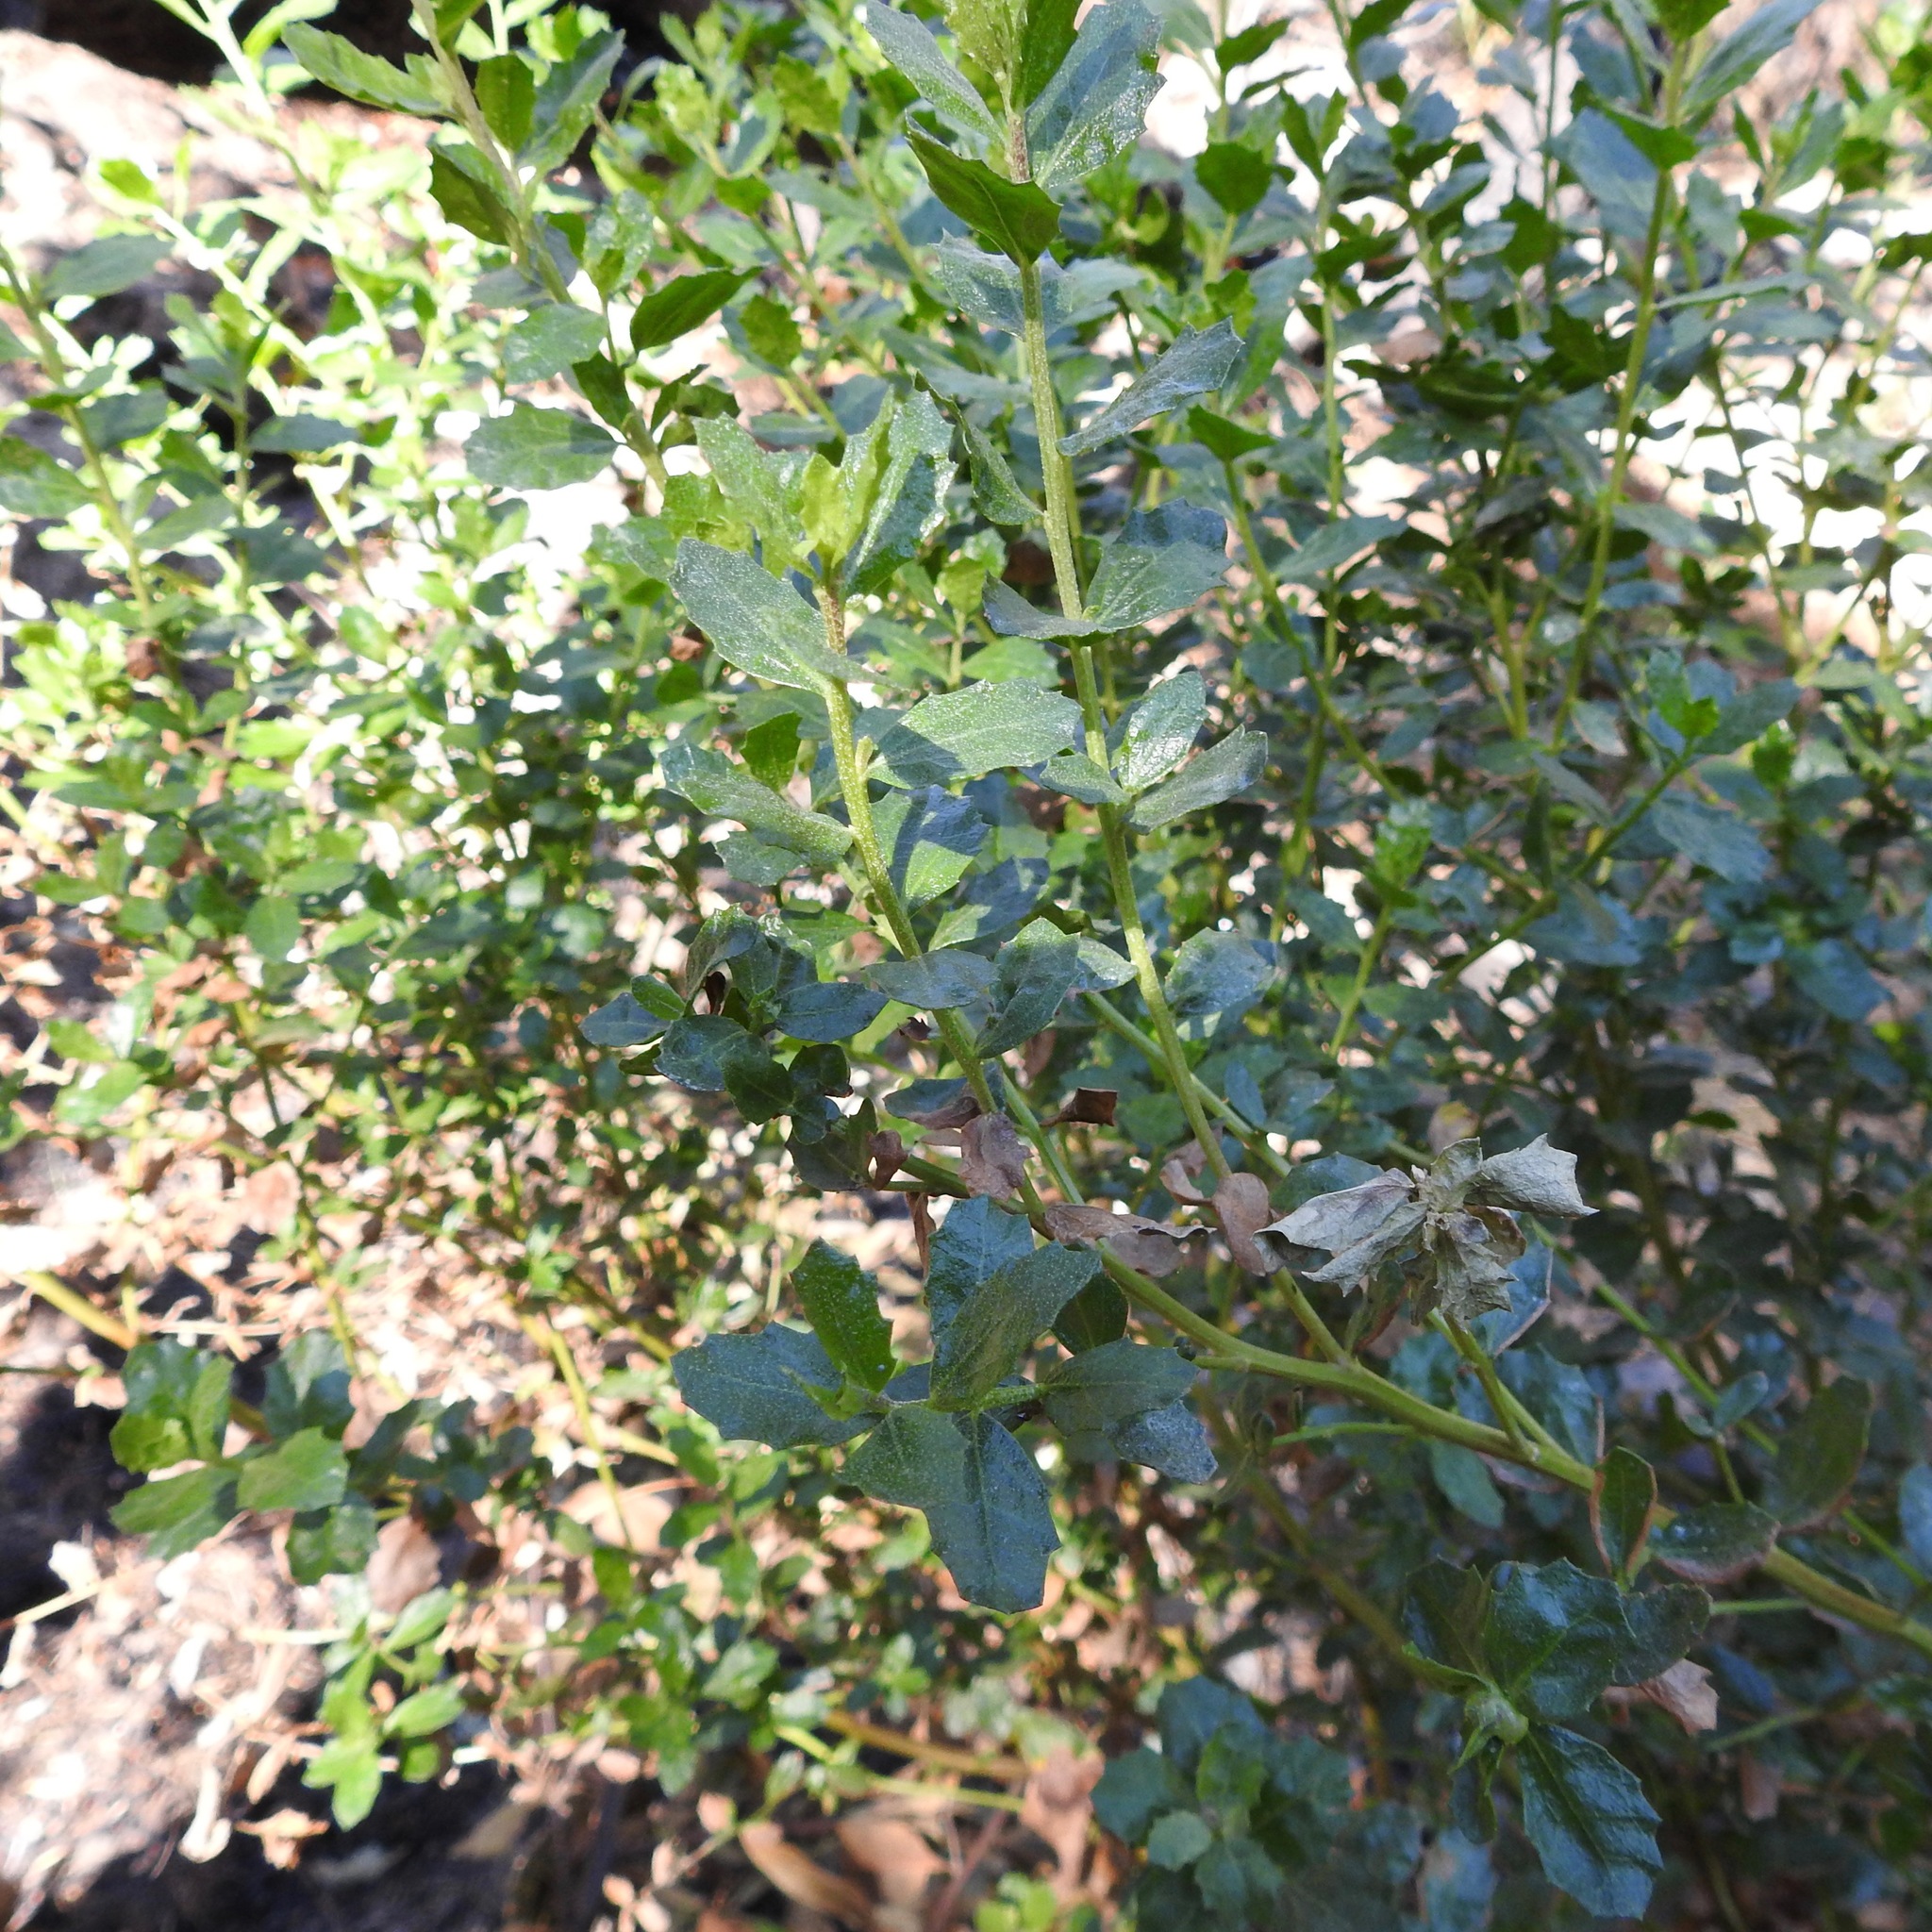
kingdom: Plantae
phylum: Tracheophyta
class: Magnoliopsida
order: Asterales
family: Asteraceae
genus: Baccharis
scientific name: Baccharis pilularis
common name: Coyotebrush
